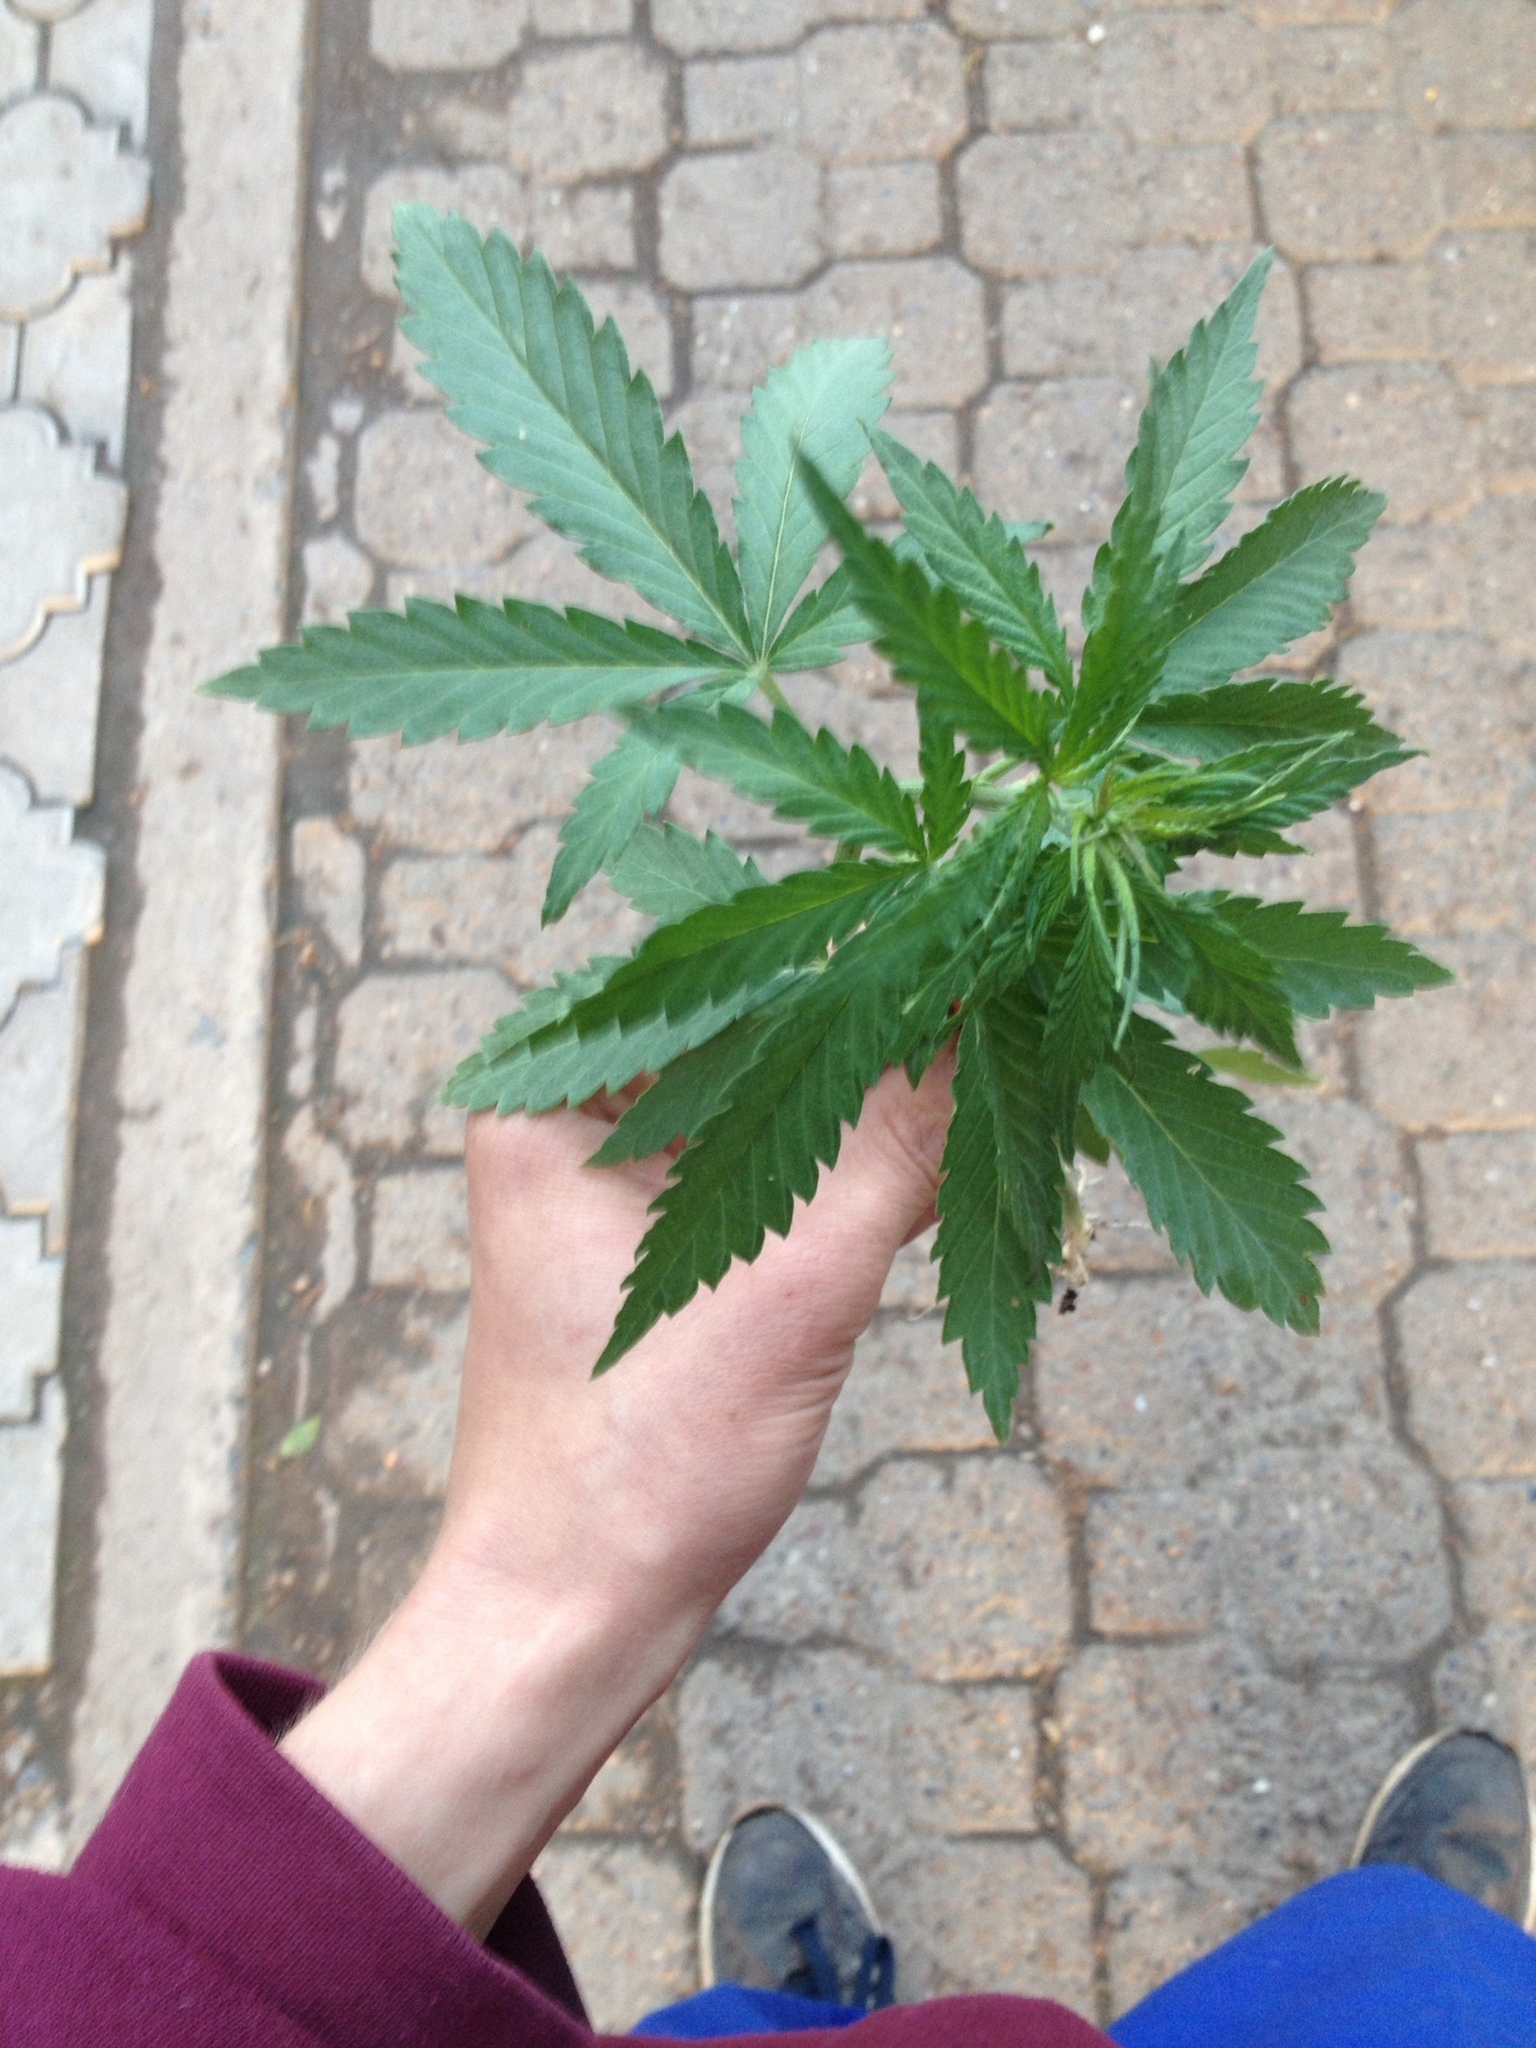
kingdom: Plantae
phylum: Tracheophyta
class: Magnoliopsida
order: Rosales
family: Cannabaceae
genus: Cannabis
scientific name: Cannabis sativa
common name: Hemp
